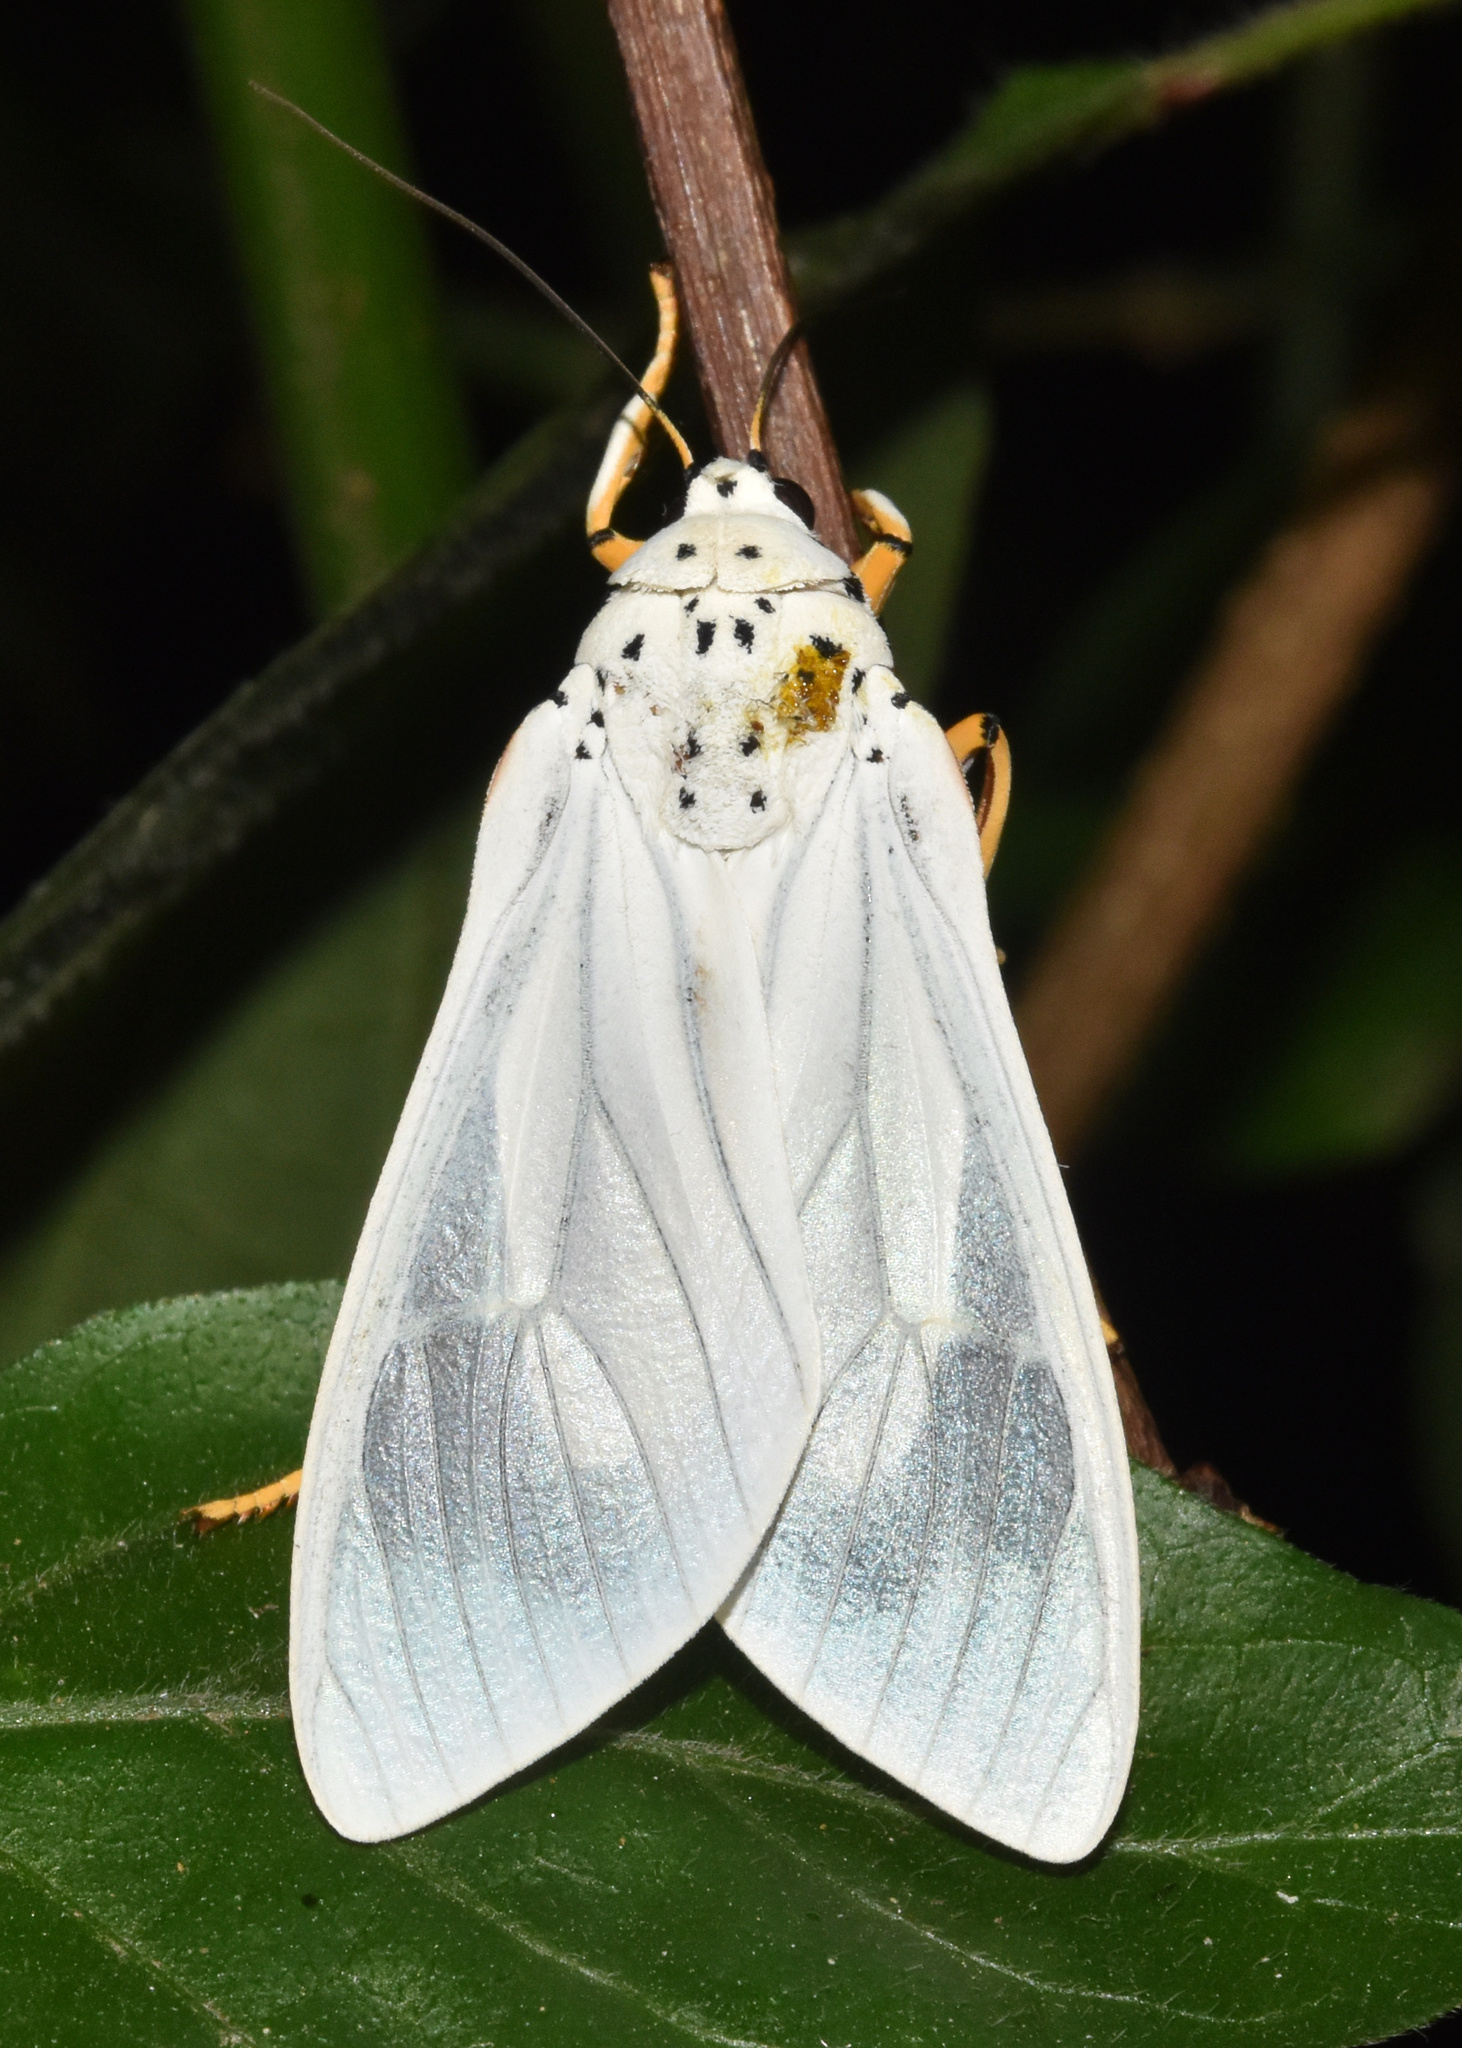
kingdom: Animalia
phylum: Arthropoda
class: Insecta
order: Lepidoptera
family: Erebidae
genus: Amerila
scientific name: Amerila bubo
